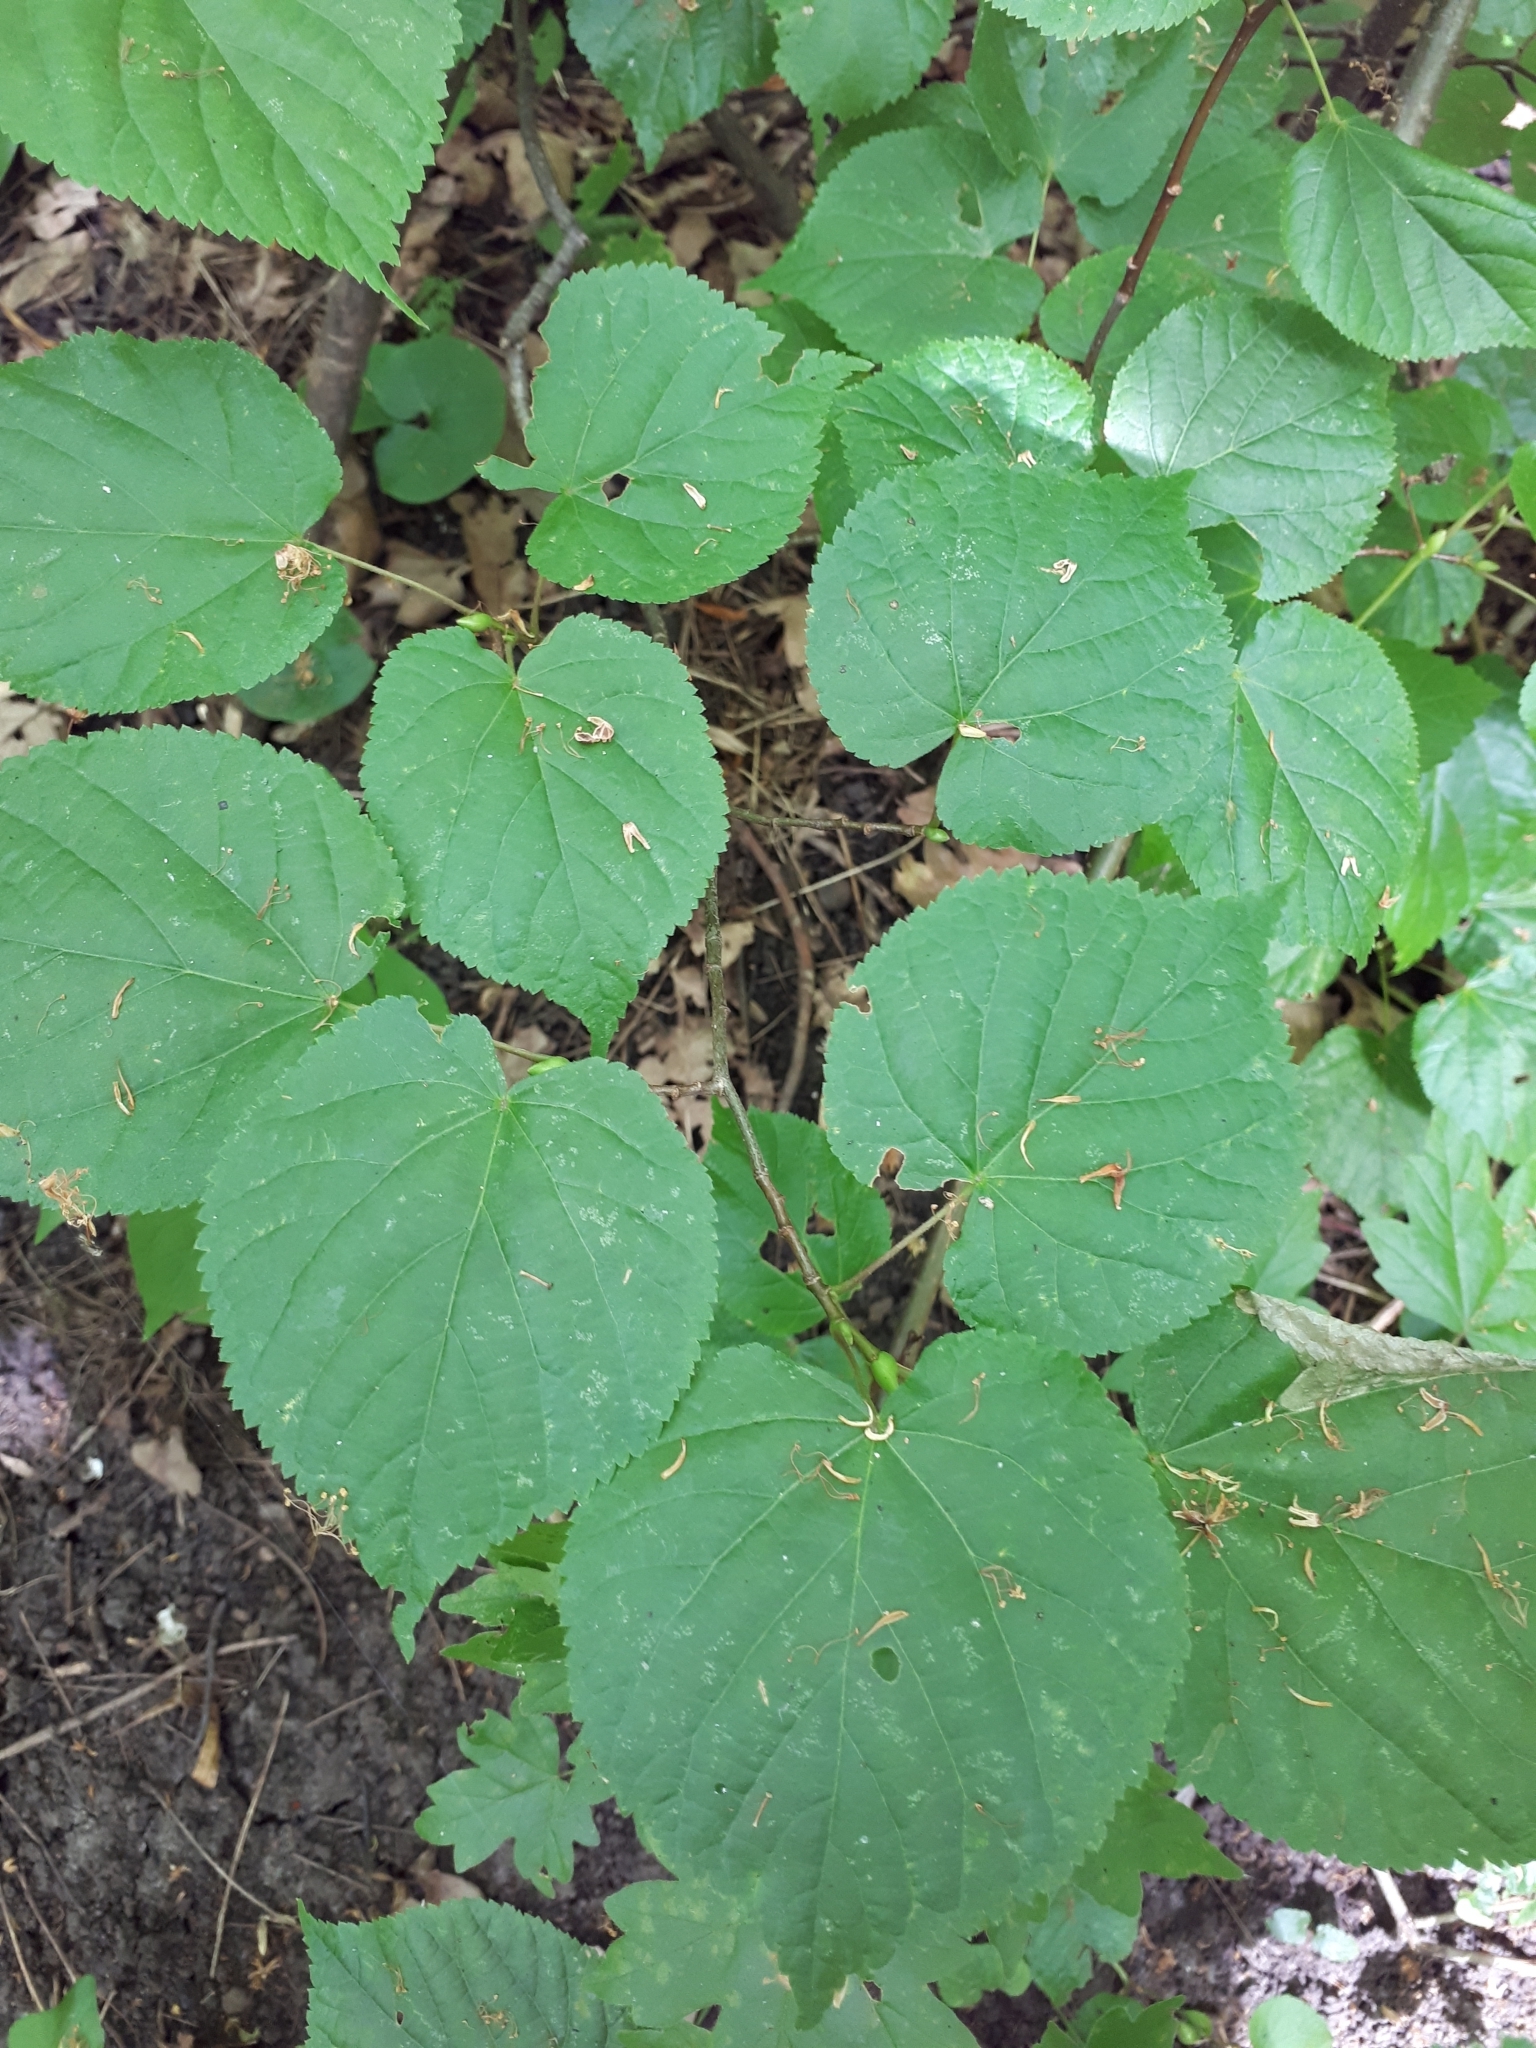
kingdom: Plantae
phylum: Tracheophyta
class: Magnoliopsida
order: Malvales
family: Malvaceae
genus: Tilia
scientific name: Tilia cordata
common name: Small-leaved lime
